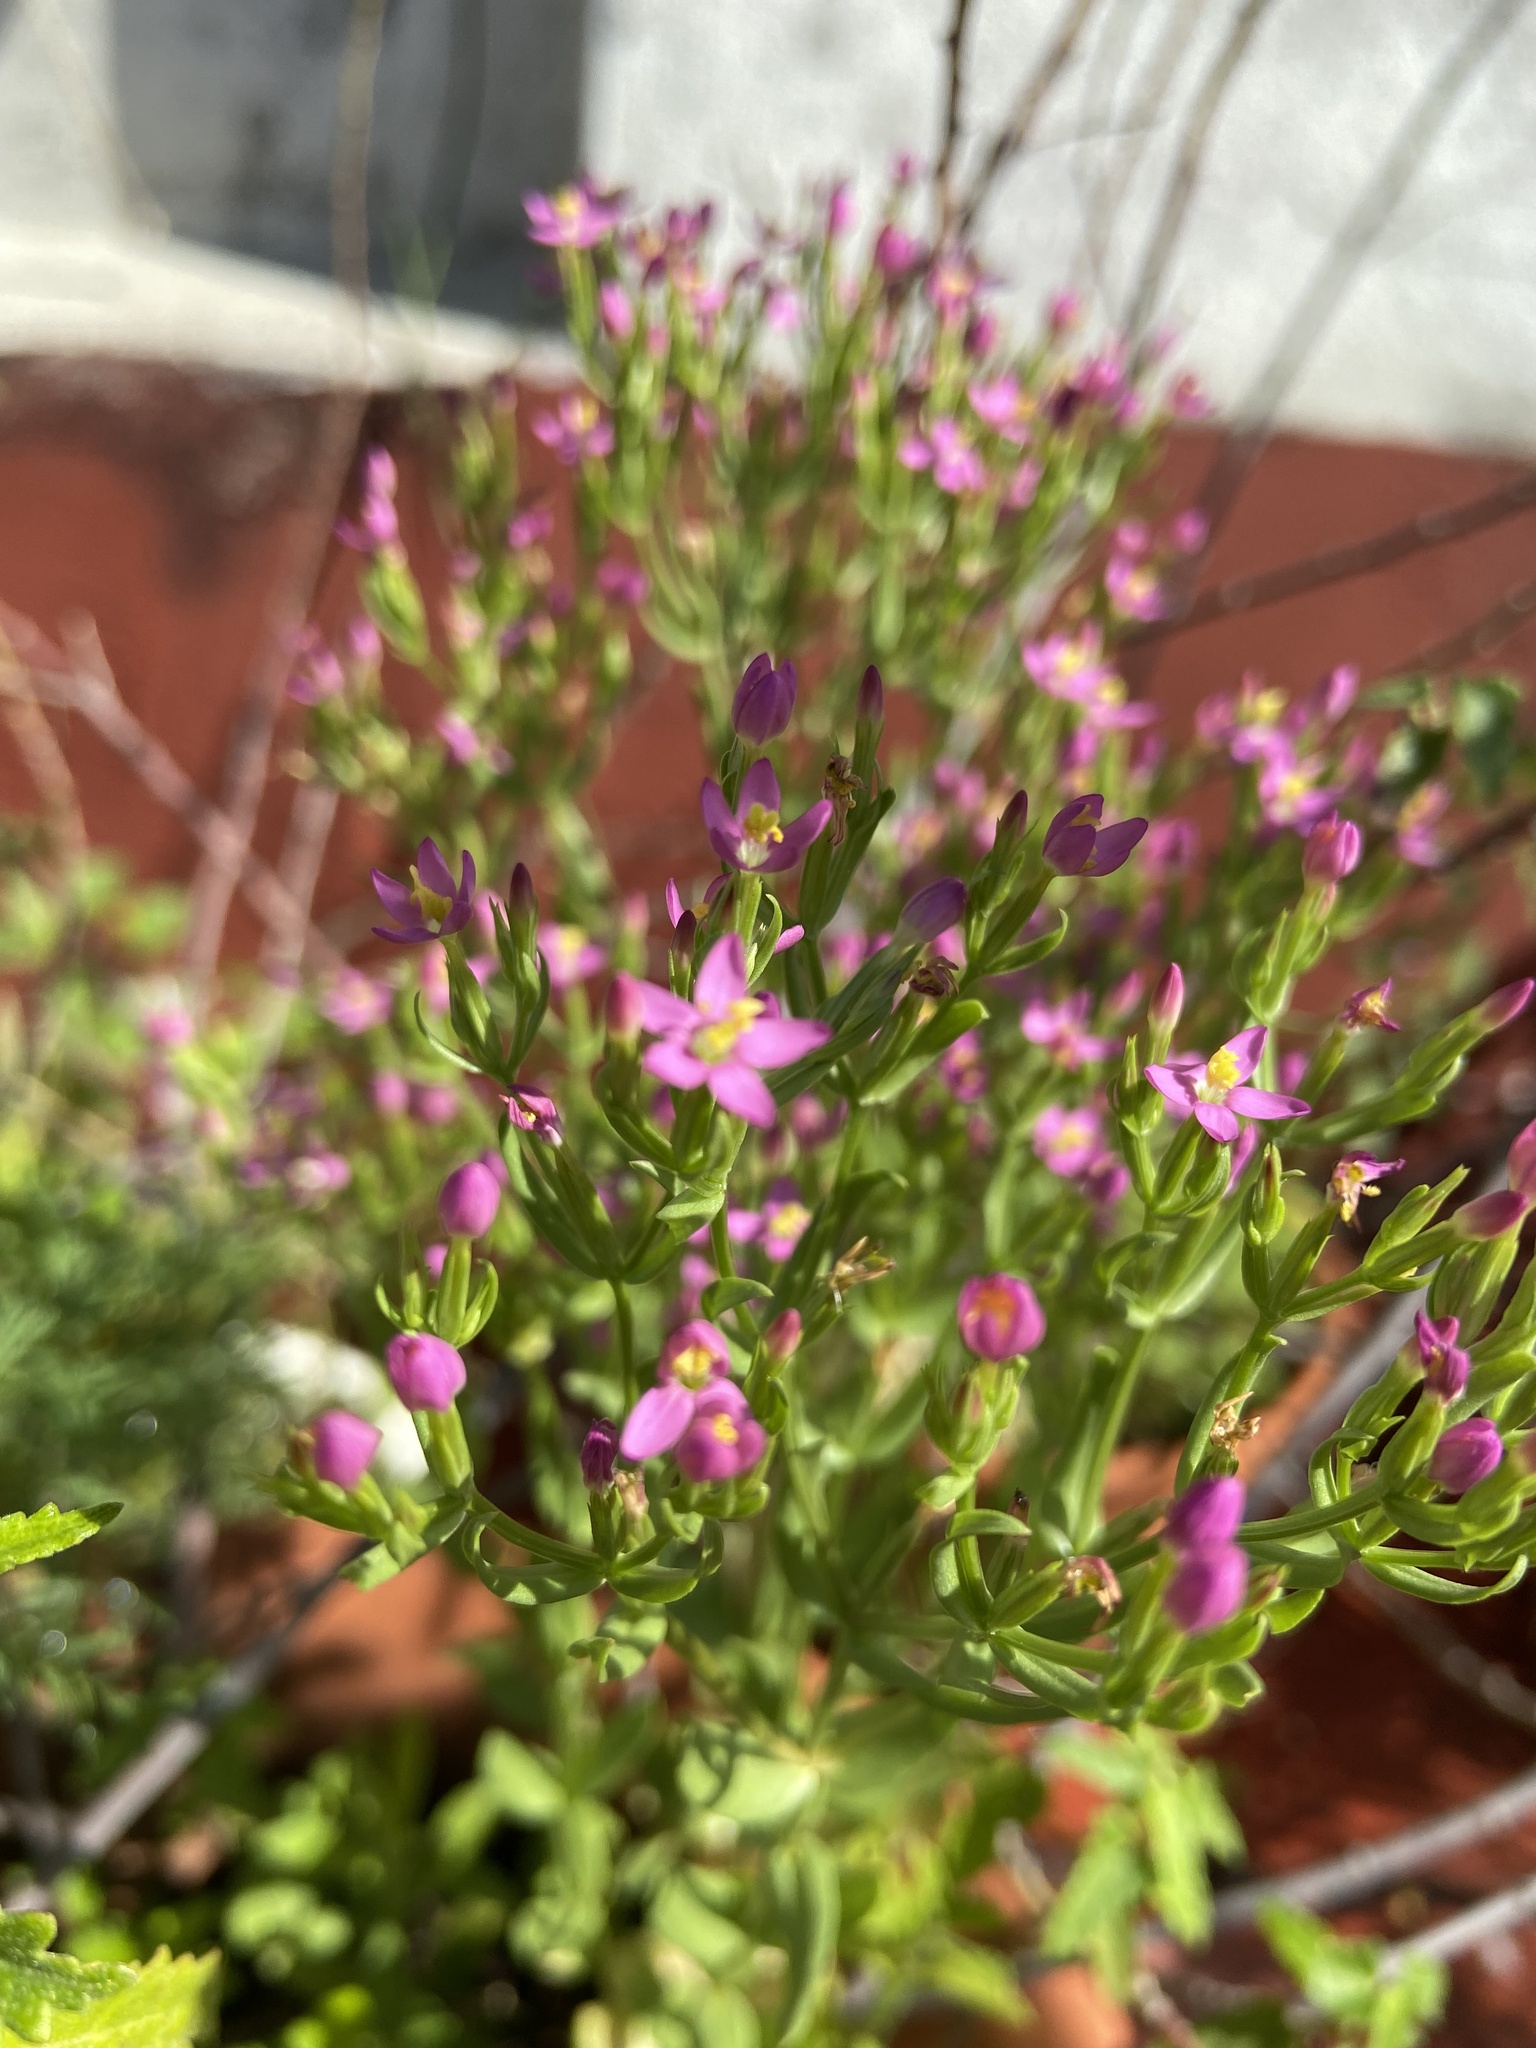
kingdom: Plantae
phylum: Tracheophyta
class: Magnoliopsida
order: Gentianales
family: Gentianaceae
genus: Centaurium
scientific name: Centaurium pulchellum
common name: Lesser centaury
